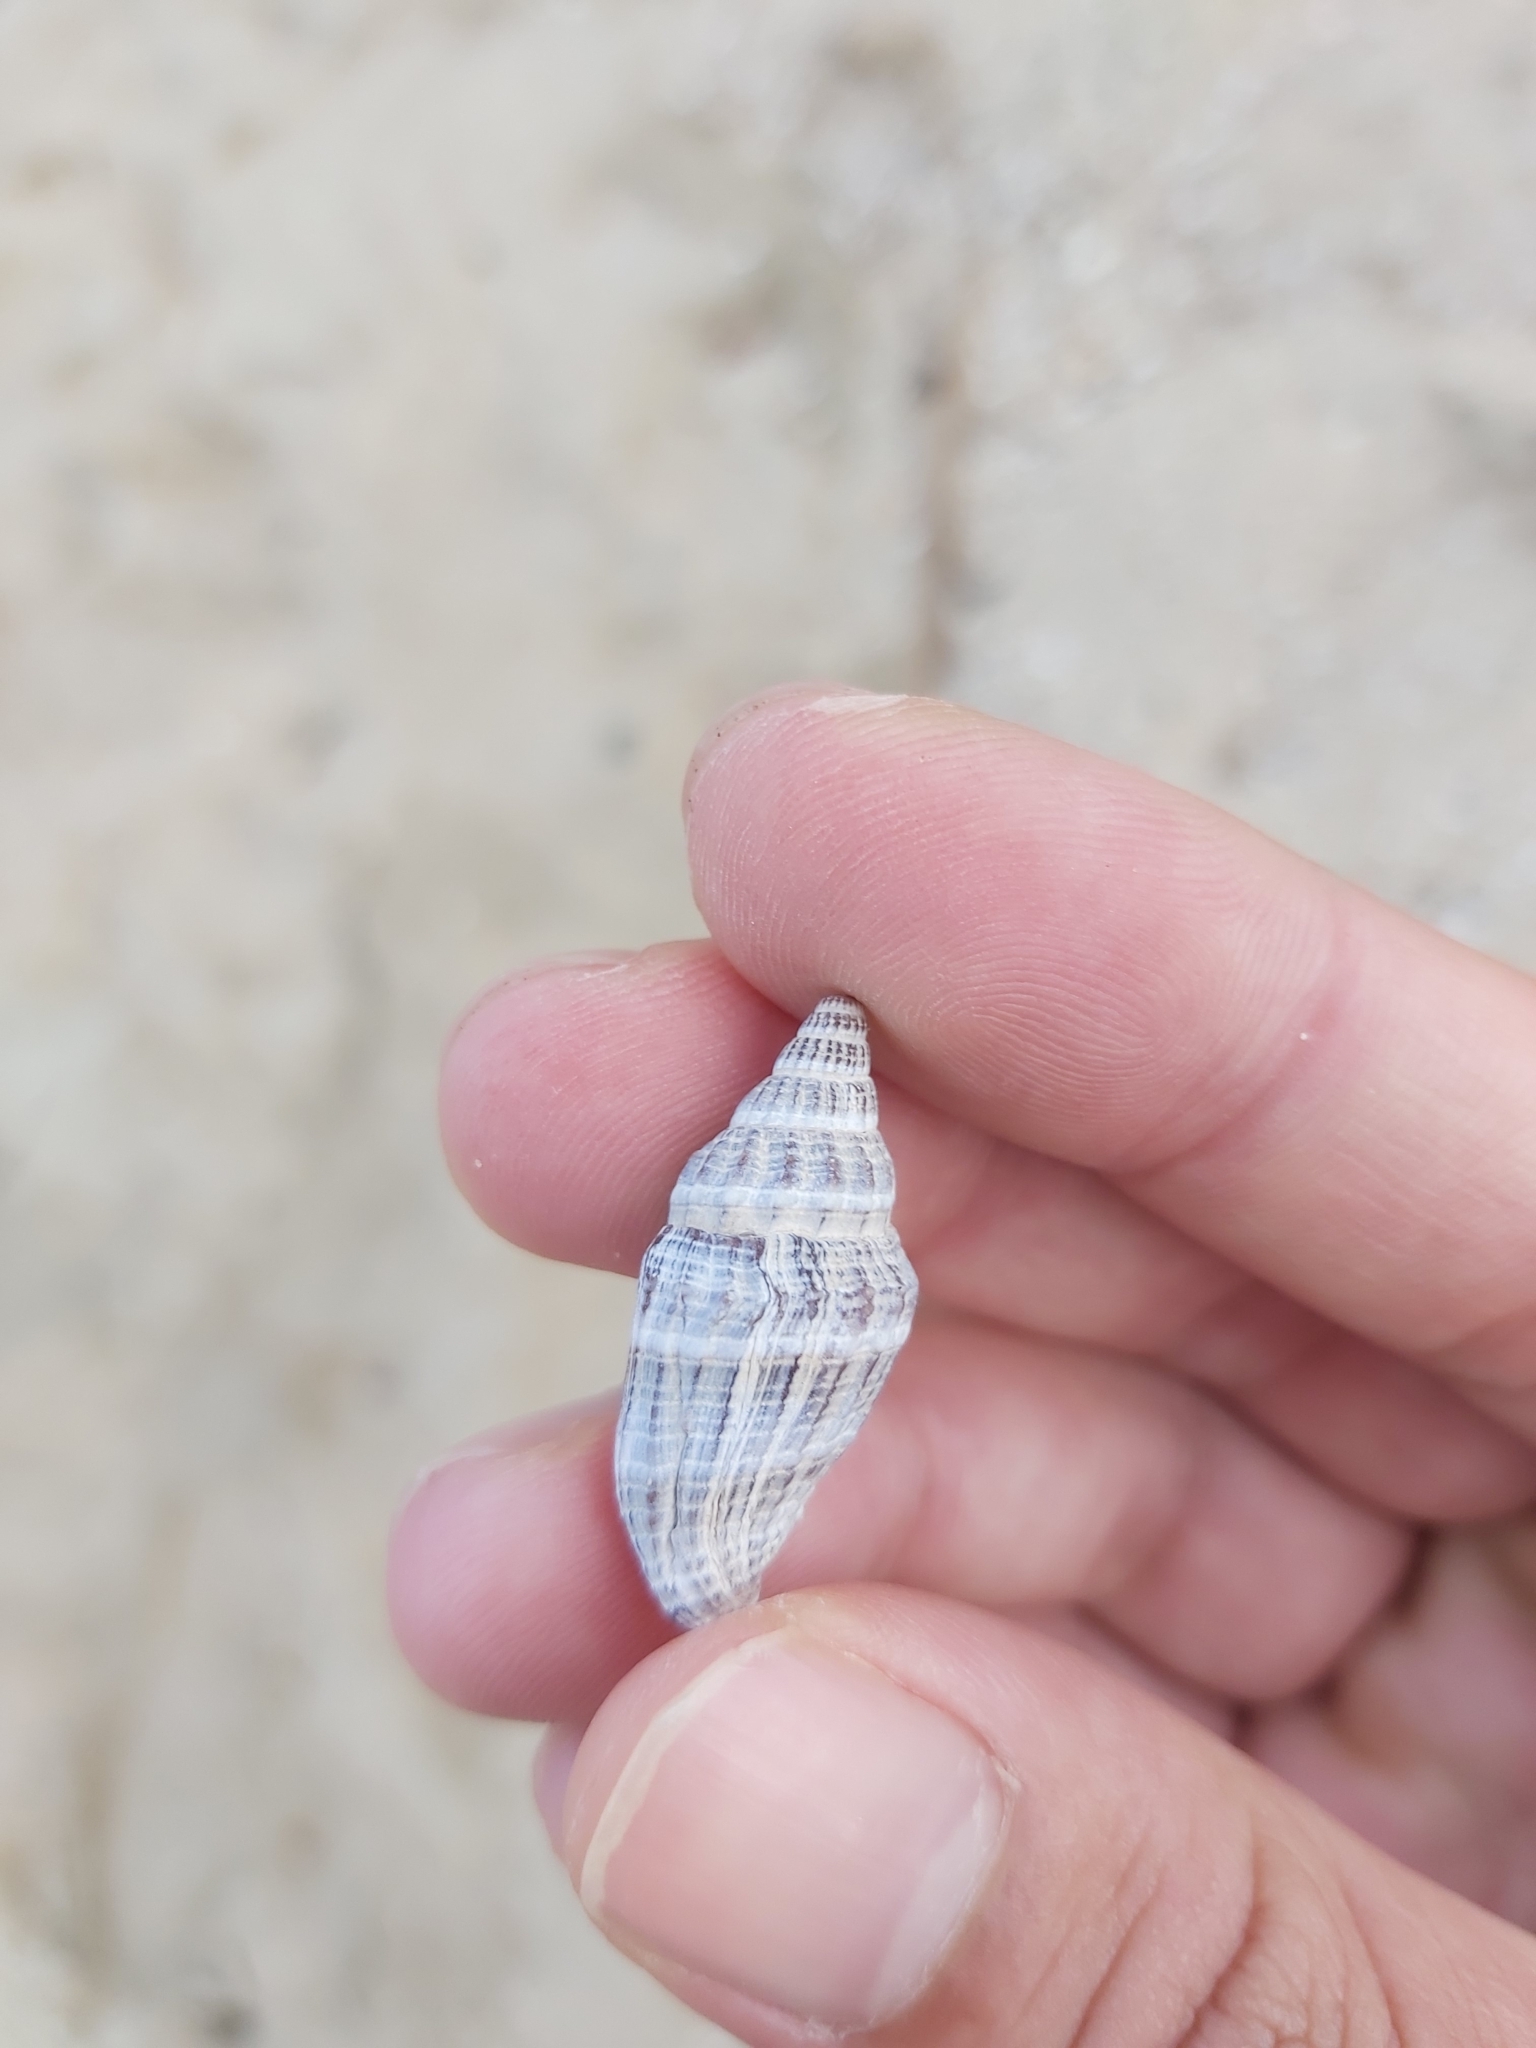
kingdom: Animalia
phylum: Mollusca
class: Gastropoda
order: Neogastropoda
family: Costellariidae
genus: Vexillum
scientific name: Vexillum rugosum
